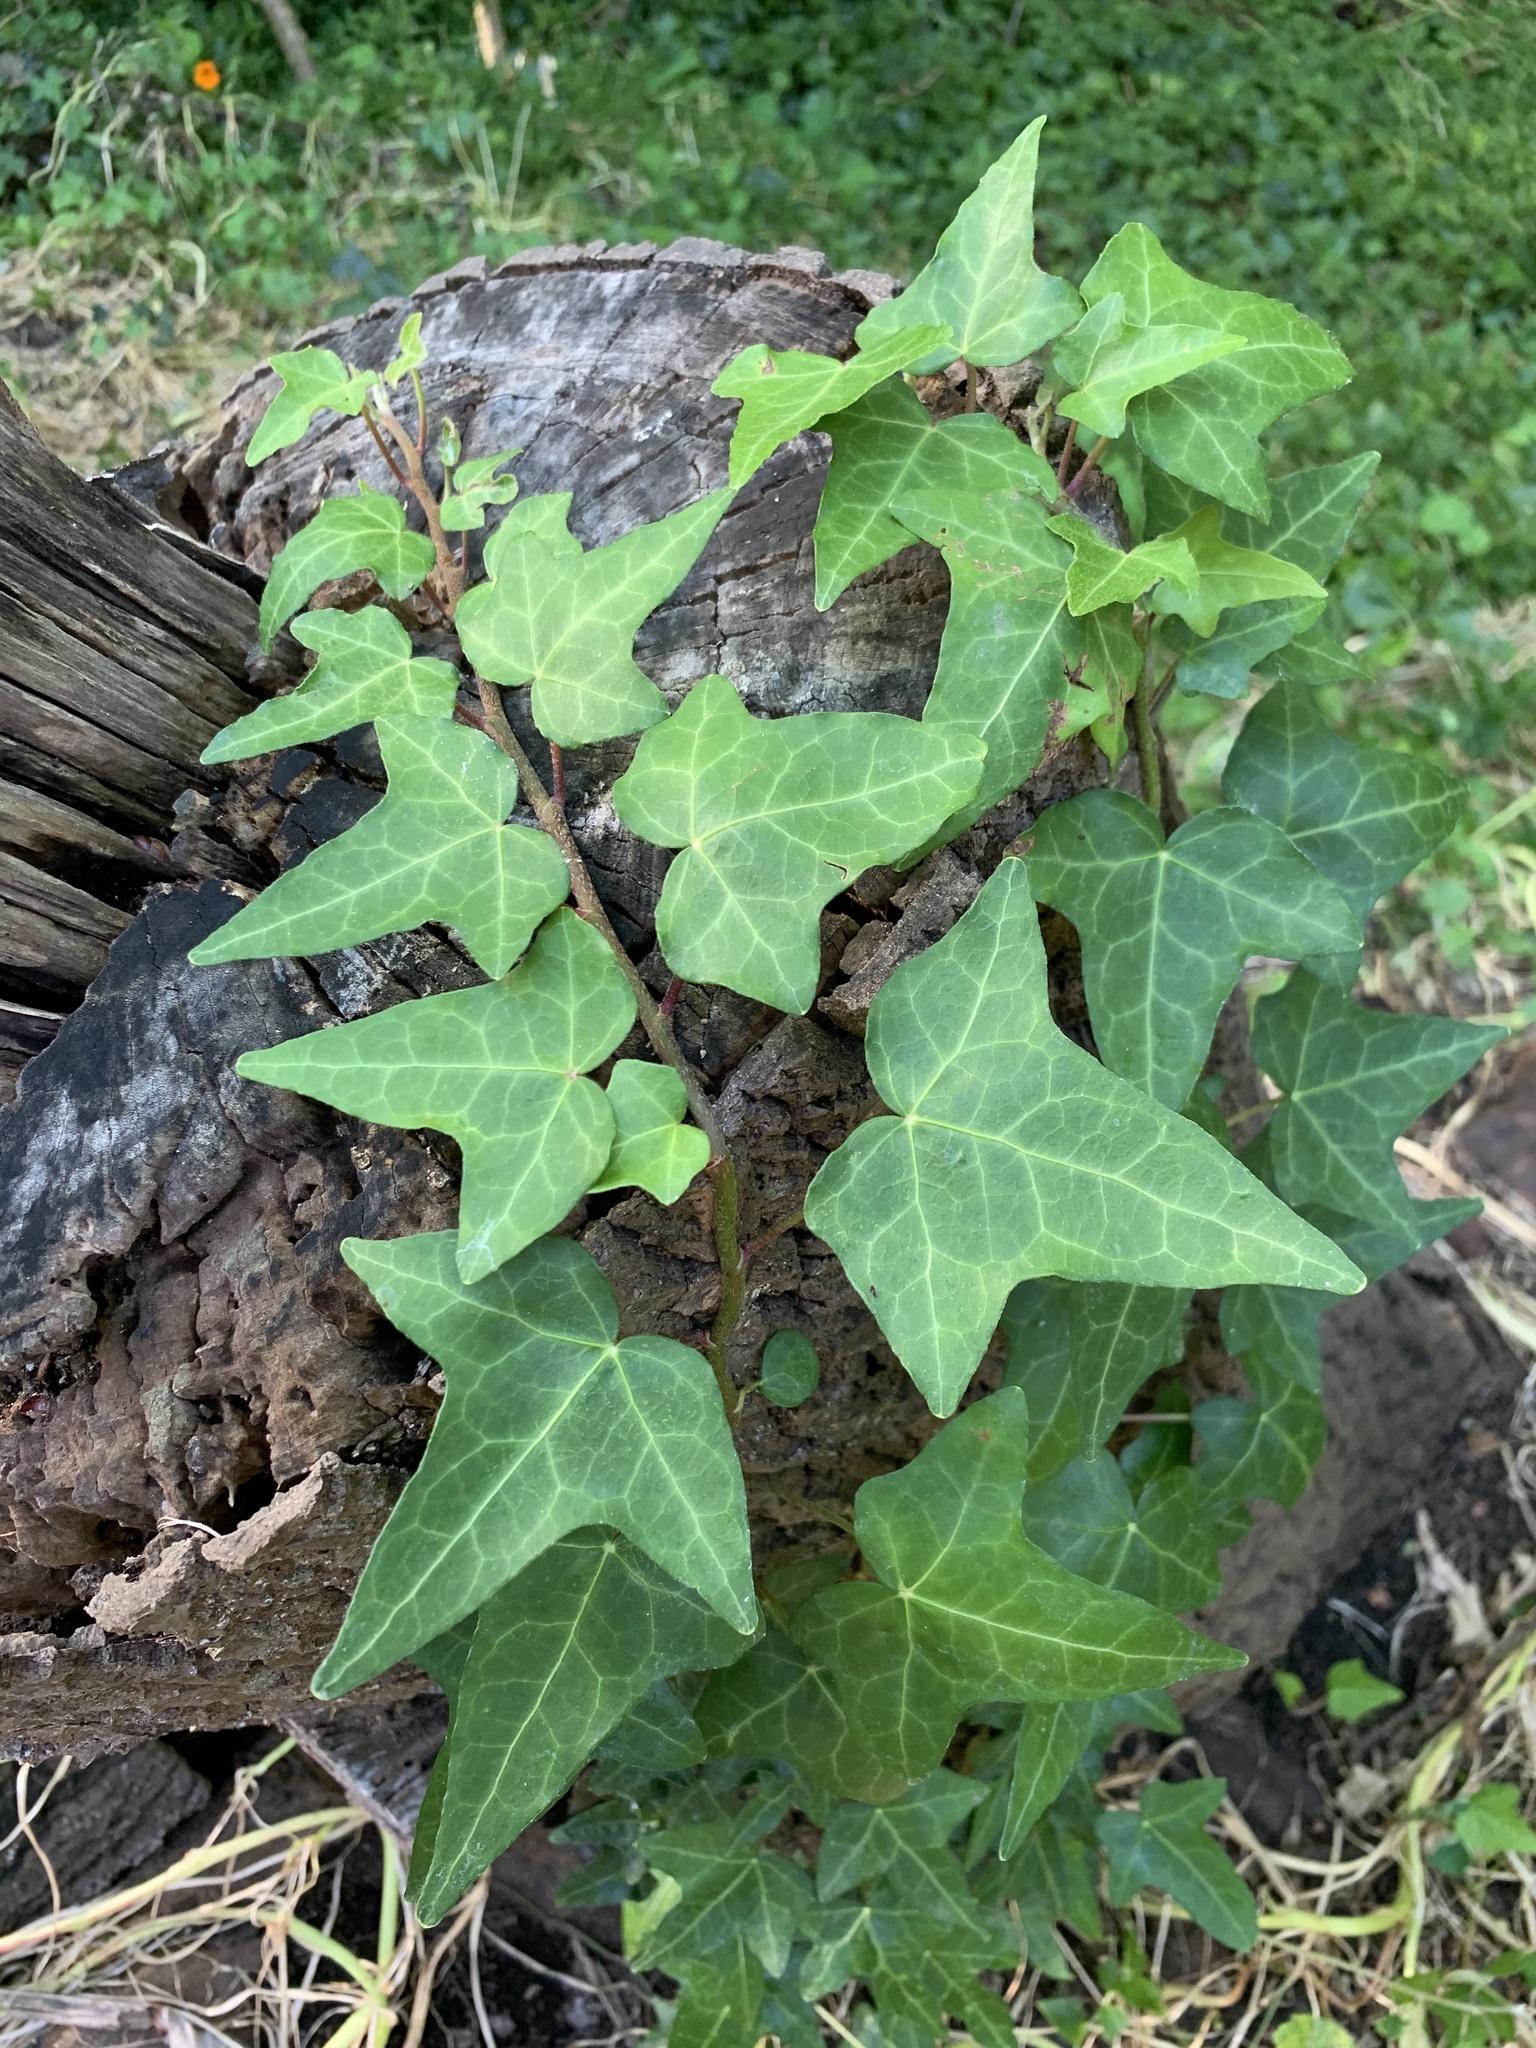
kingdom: Plantae
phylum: Tracheophyta
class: Magnoliopsida
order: Apiales
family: Araliaceae
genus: Hedera
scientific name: Hedera helix
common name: Ivy
